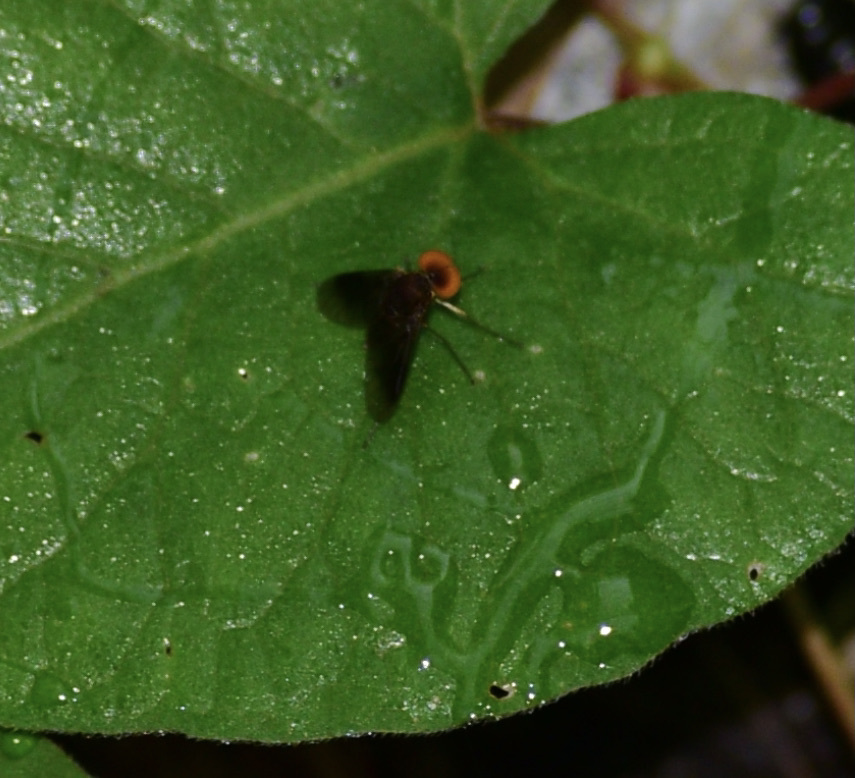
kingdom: Animalia
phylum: Arthropoda
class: Insecta
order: Diptera
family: Rhagionidae
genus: Chrysopilus
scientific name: Chrysopilus quadratus
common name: Quadrate snipe fly
